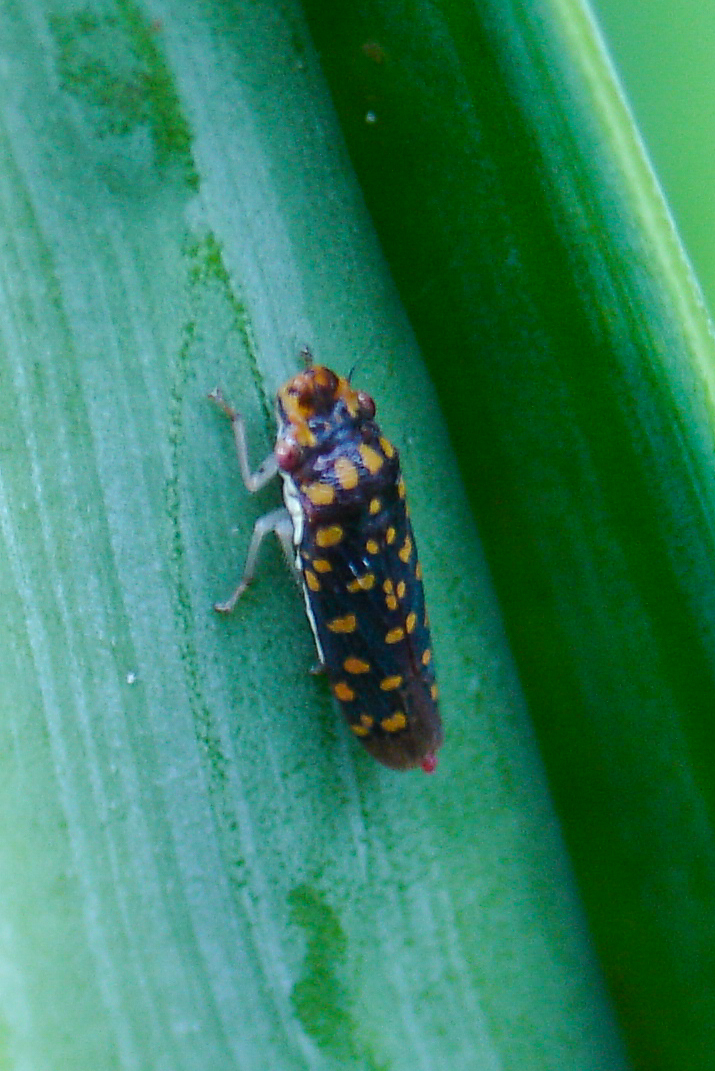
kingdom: Animalia
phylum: Arthropoda
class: Insecta
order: Hemiptera
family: Cicadellidae
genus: Paraulacizes
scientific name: Paraulacizes thunbergii
